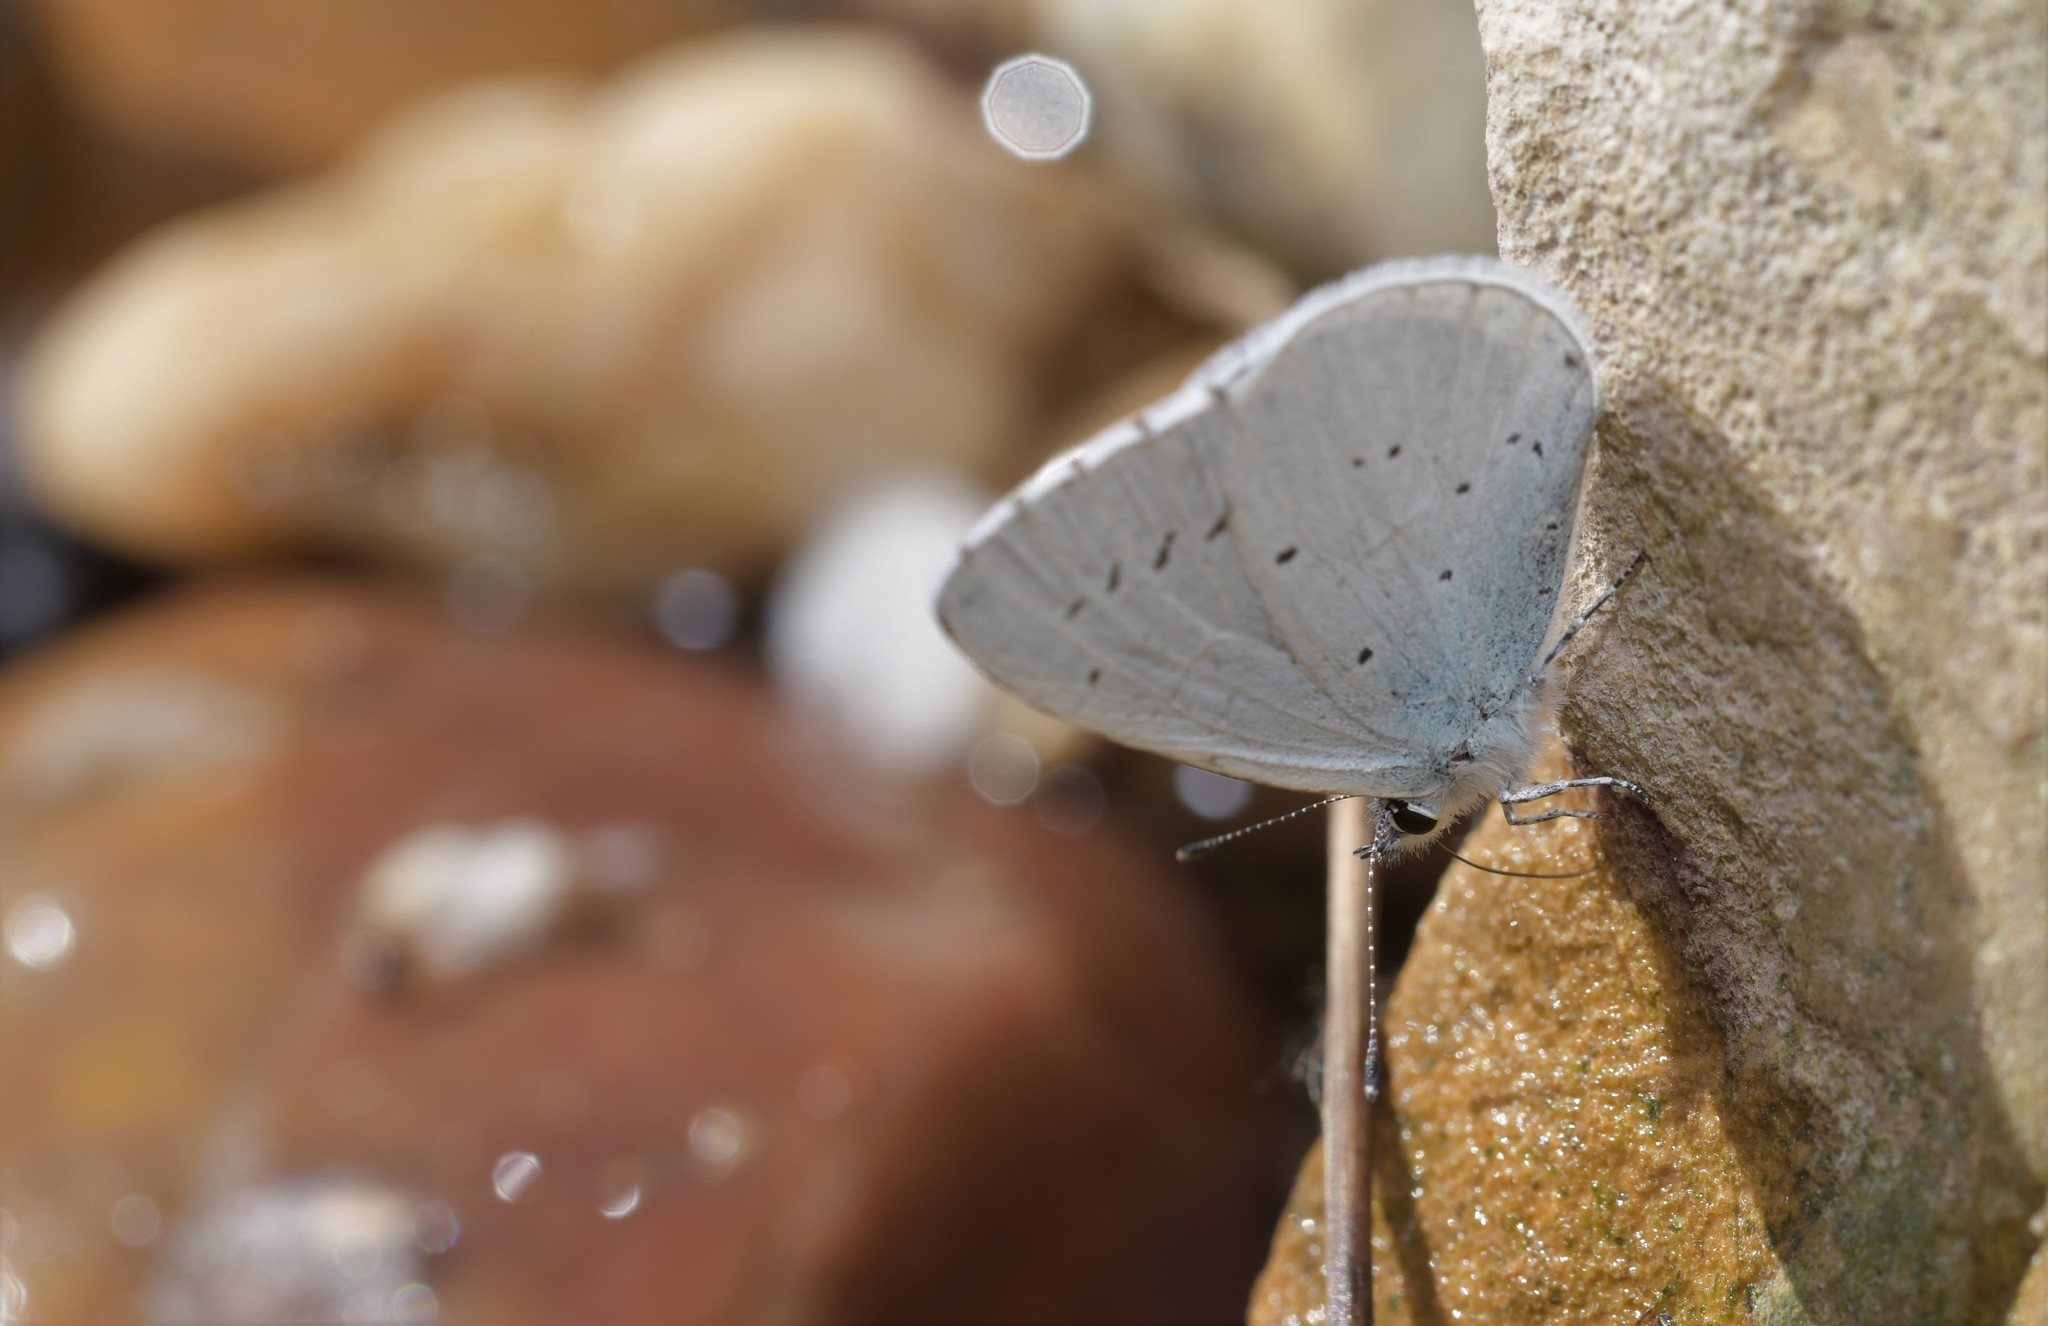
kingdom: Animalia
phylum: Arthropoda
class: Insecta
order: Lepidoptera
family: Lycaenidae
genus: Celastrina
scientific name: Celastrina argiolus
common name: Holly blue
